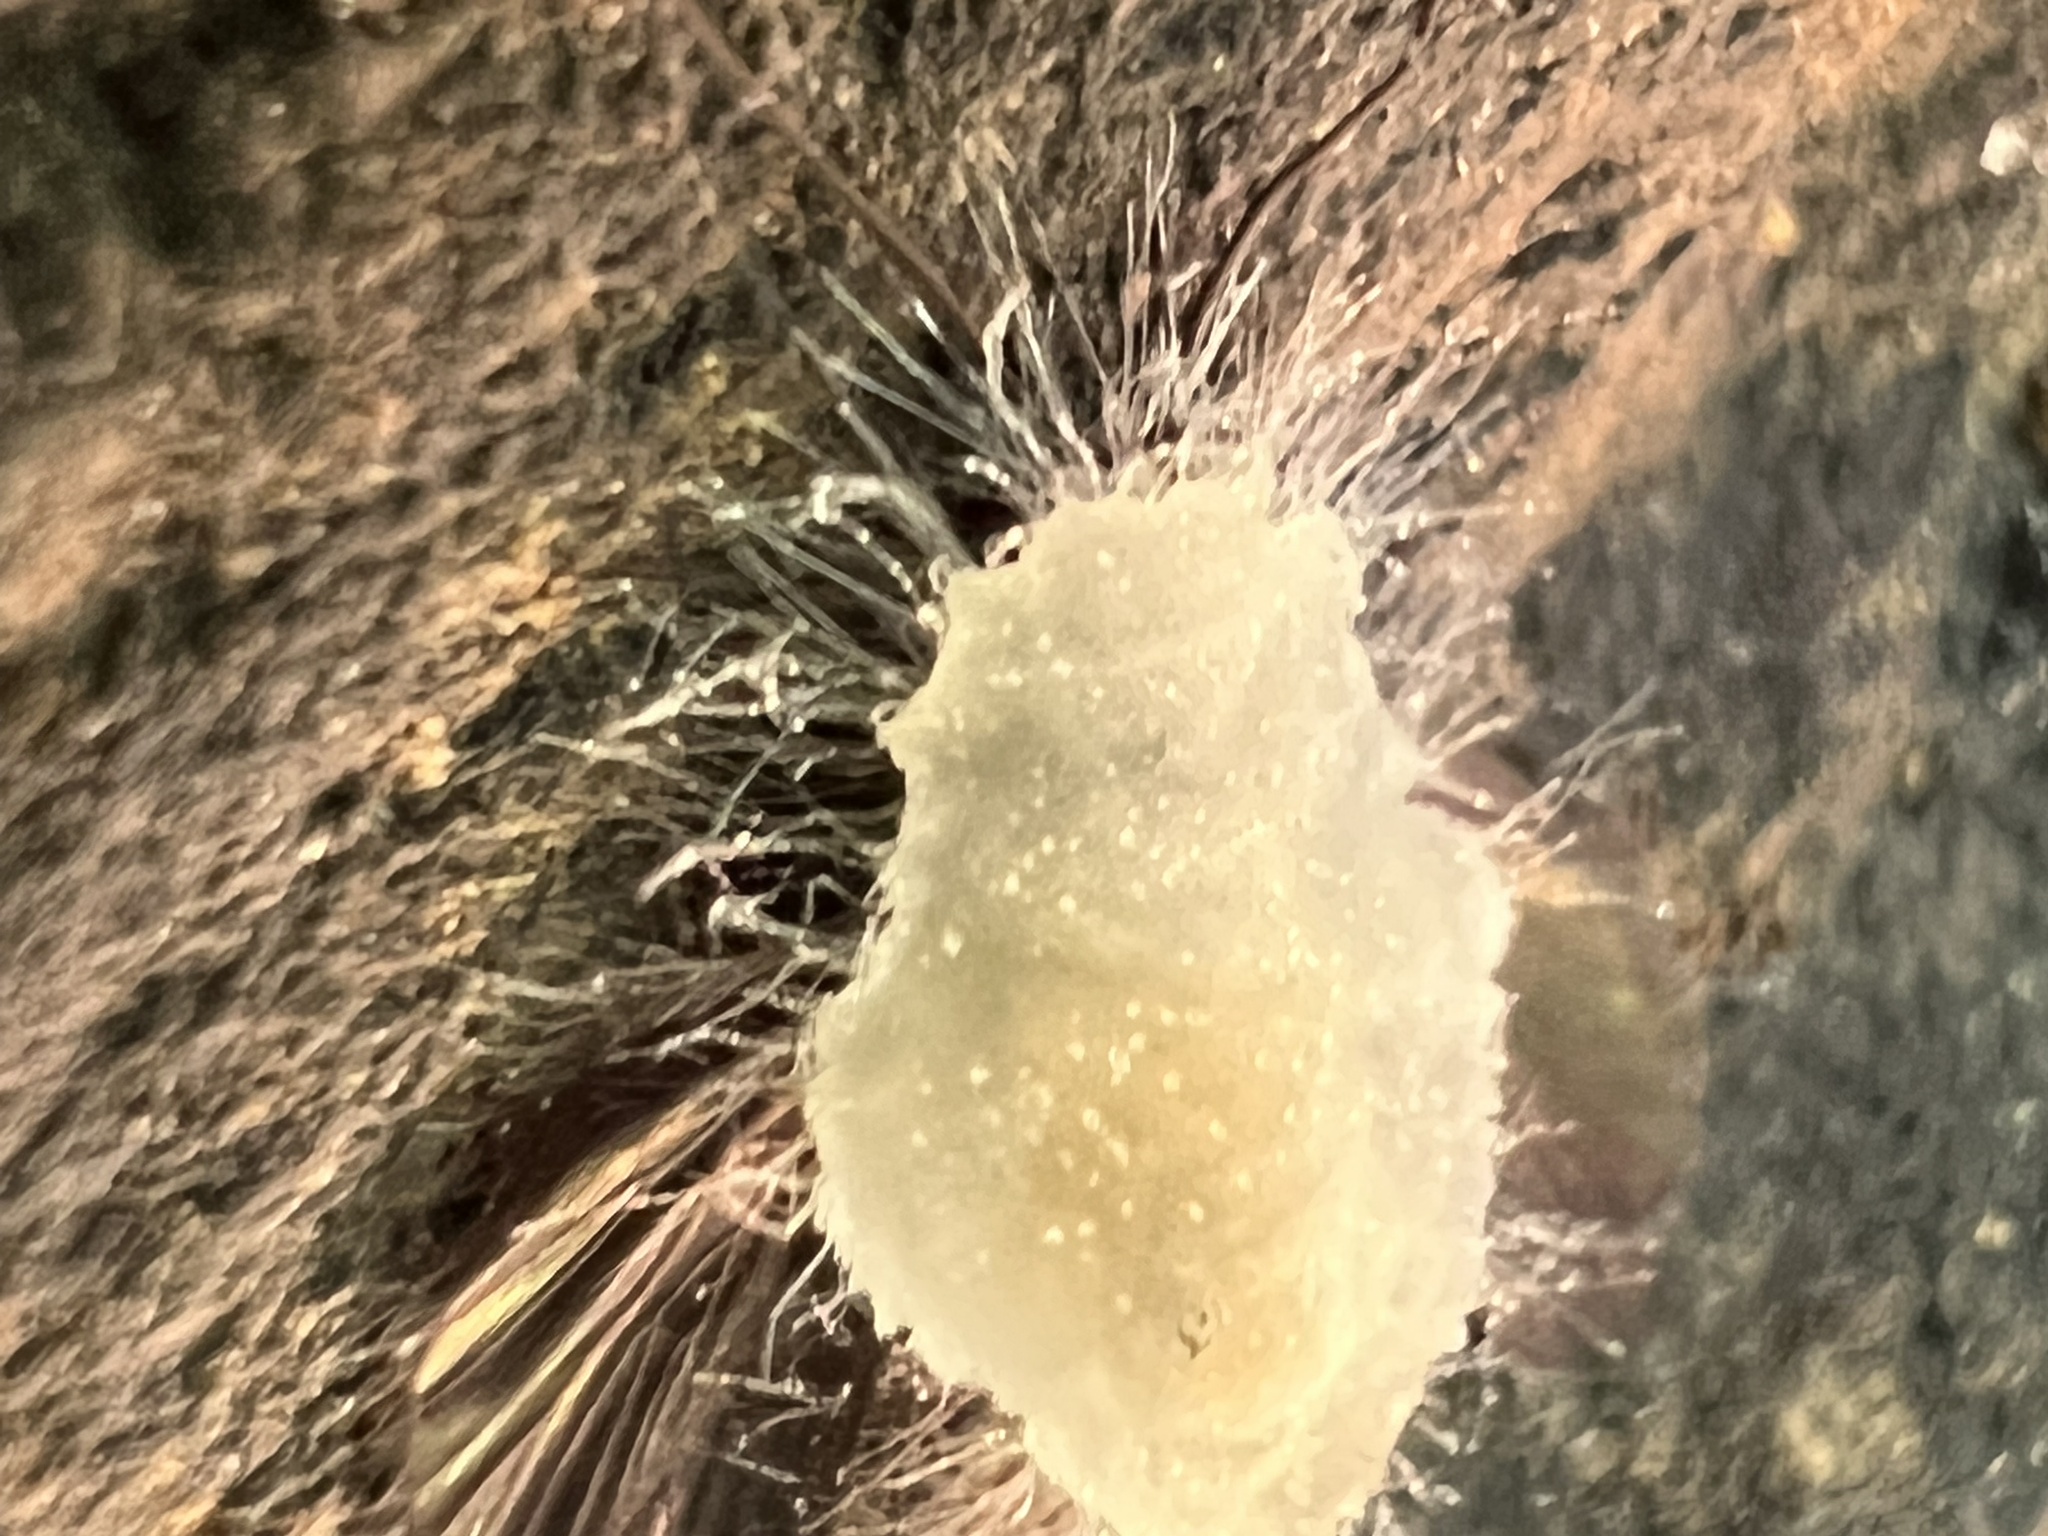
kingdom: Fungi
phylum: Entomophthoromycota
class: Entomophthoromycetes
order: Entomophthorales
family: Entomophthoraceae
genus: Erynia
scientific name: Erynia rhizospora
